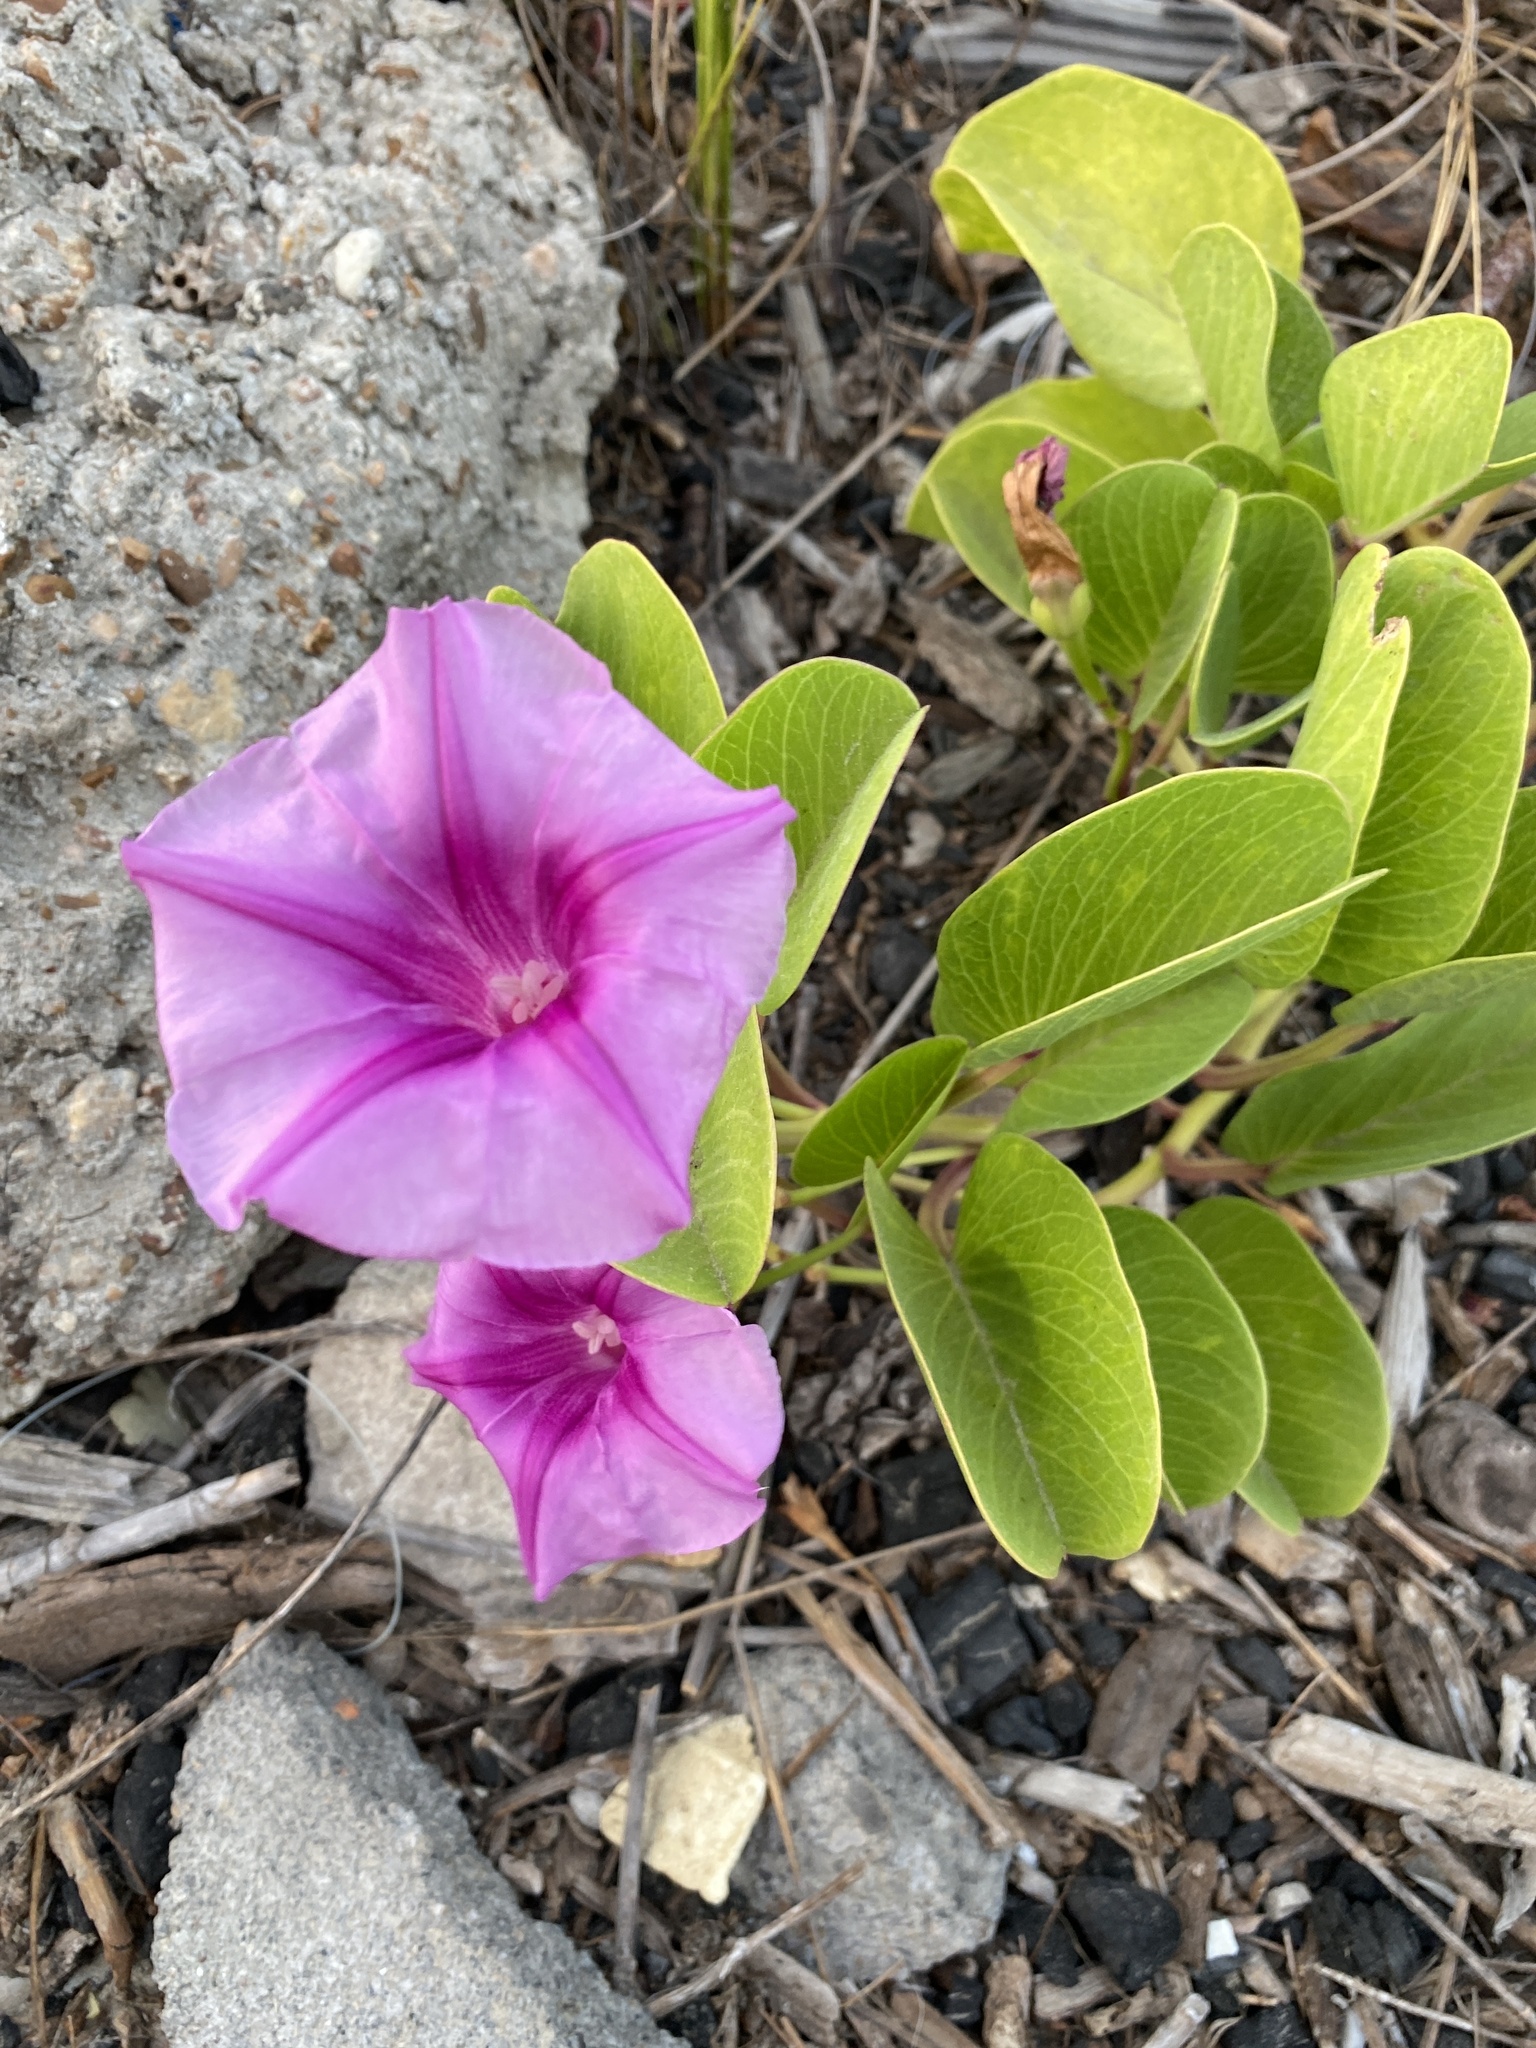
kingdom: Plantae
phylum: Tracheophyta
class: Magnoliopsida
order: Solanales
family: Convolvulaceae
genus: Ipomoea
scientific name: Ipomoea pes-caprae
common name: Beach morning glory
